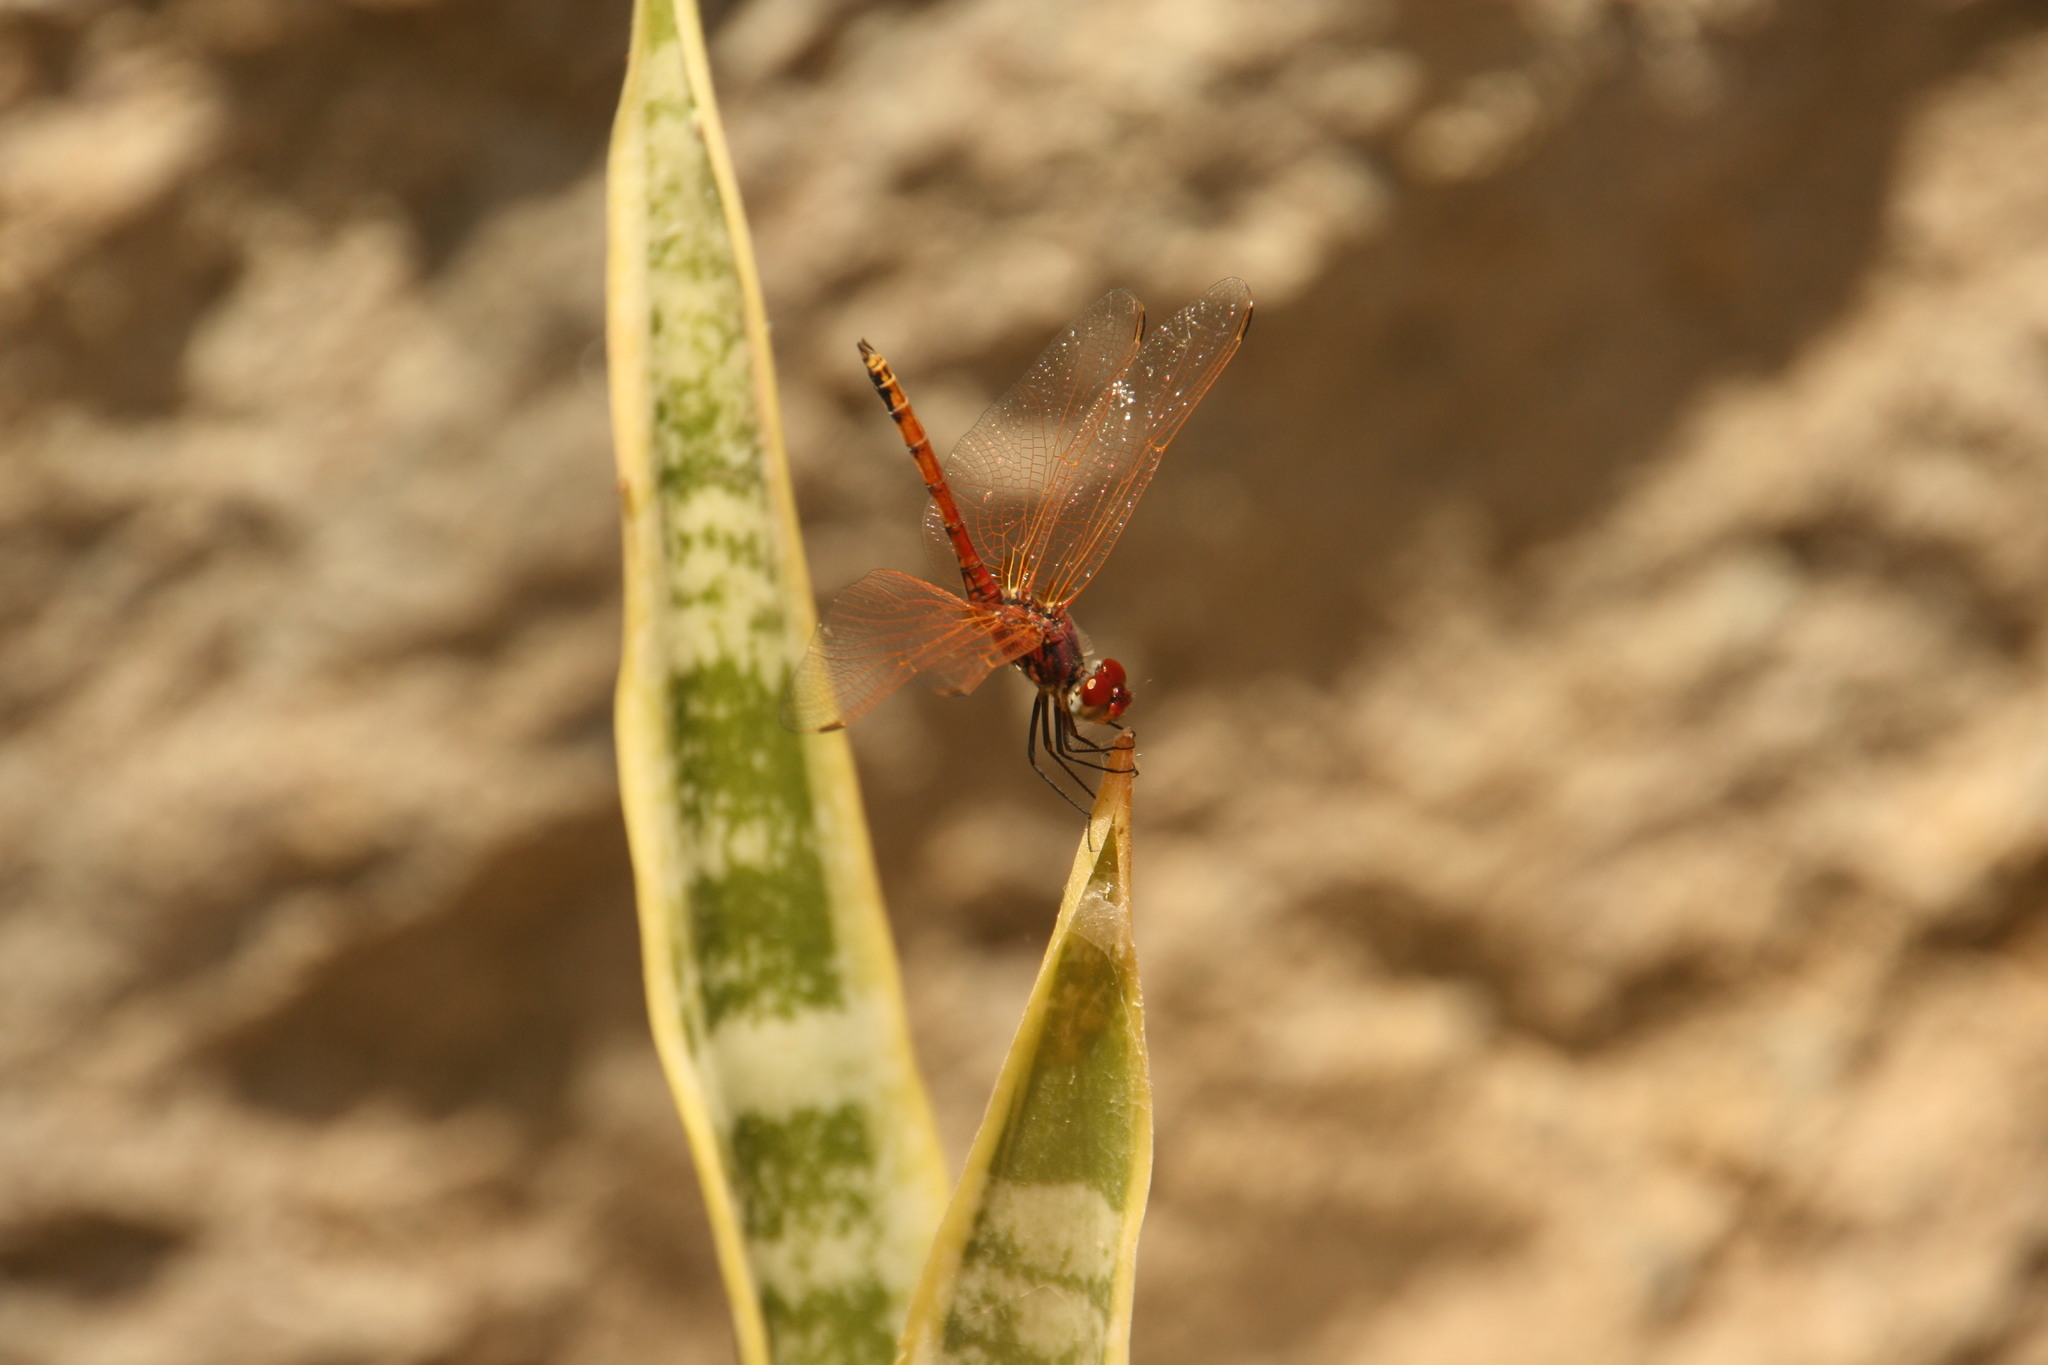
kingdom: Animalia
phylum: Arthropoda
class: Insecta
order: Odonata
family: Libellulidae
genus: Trithemis
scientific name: Trithemis arteriosa
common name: Red-veined dropwing
